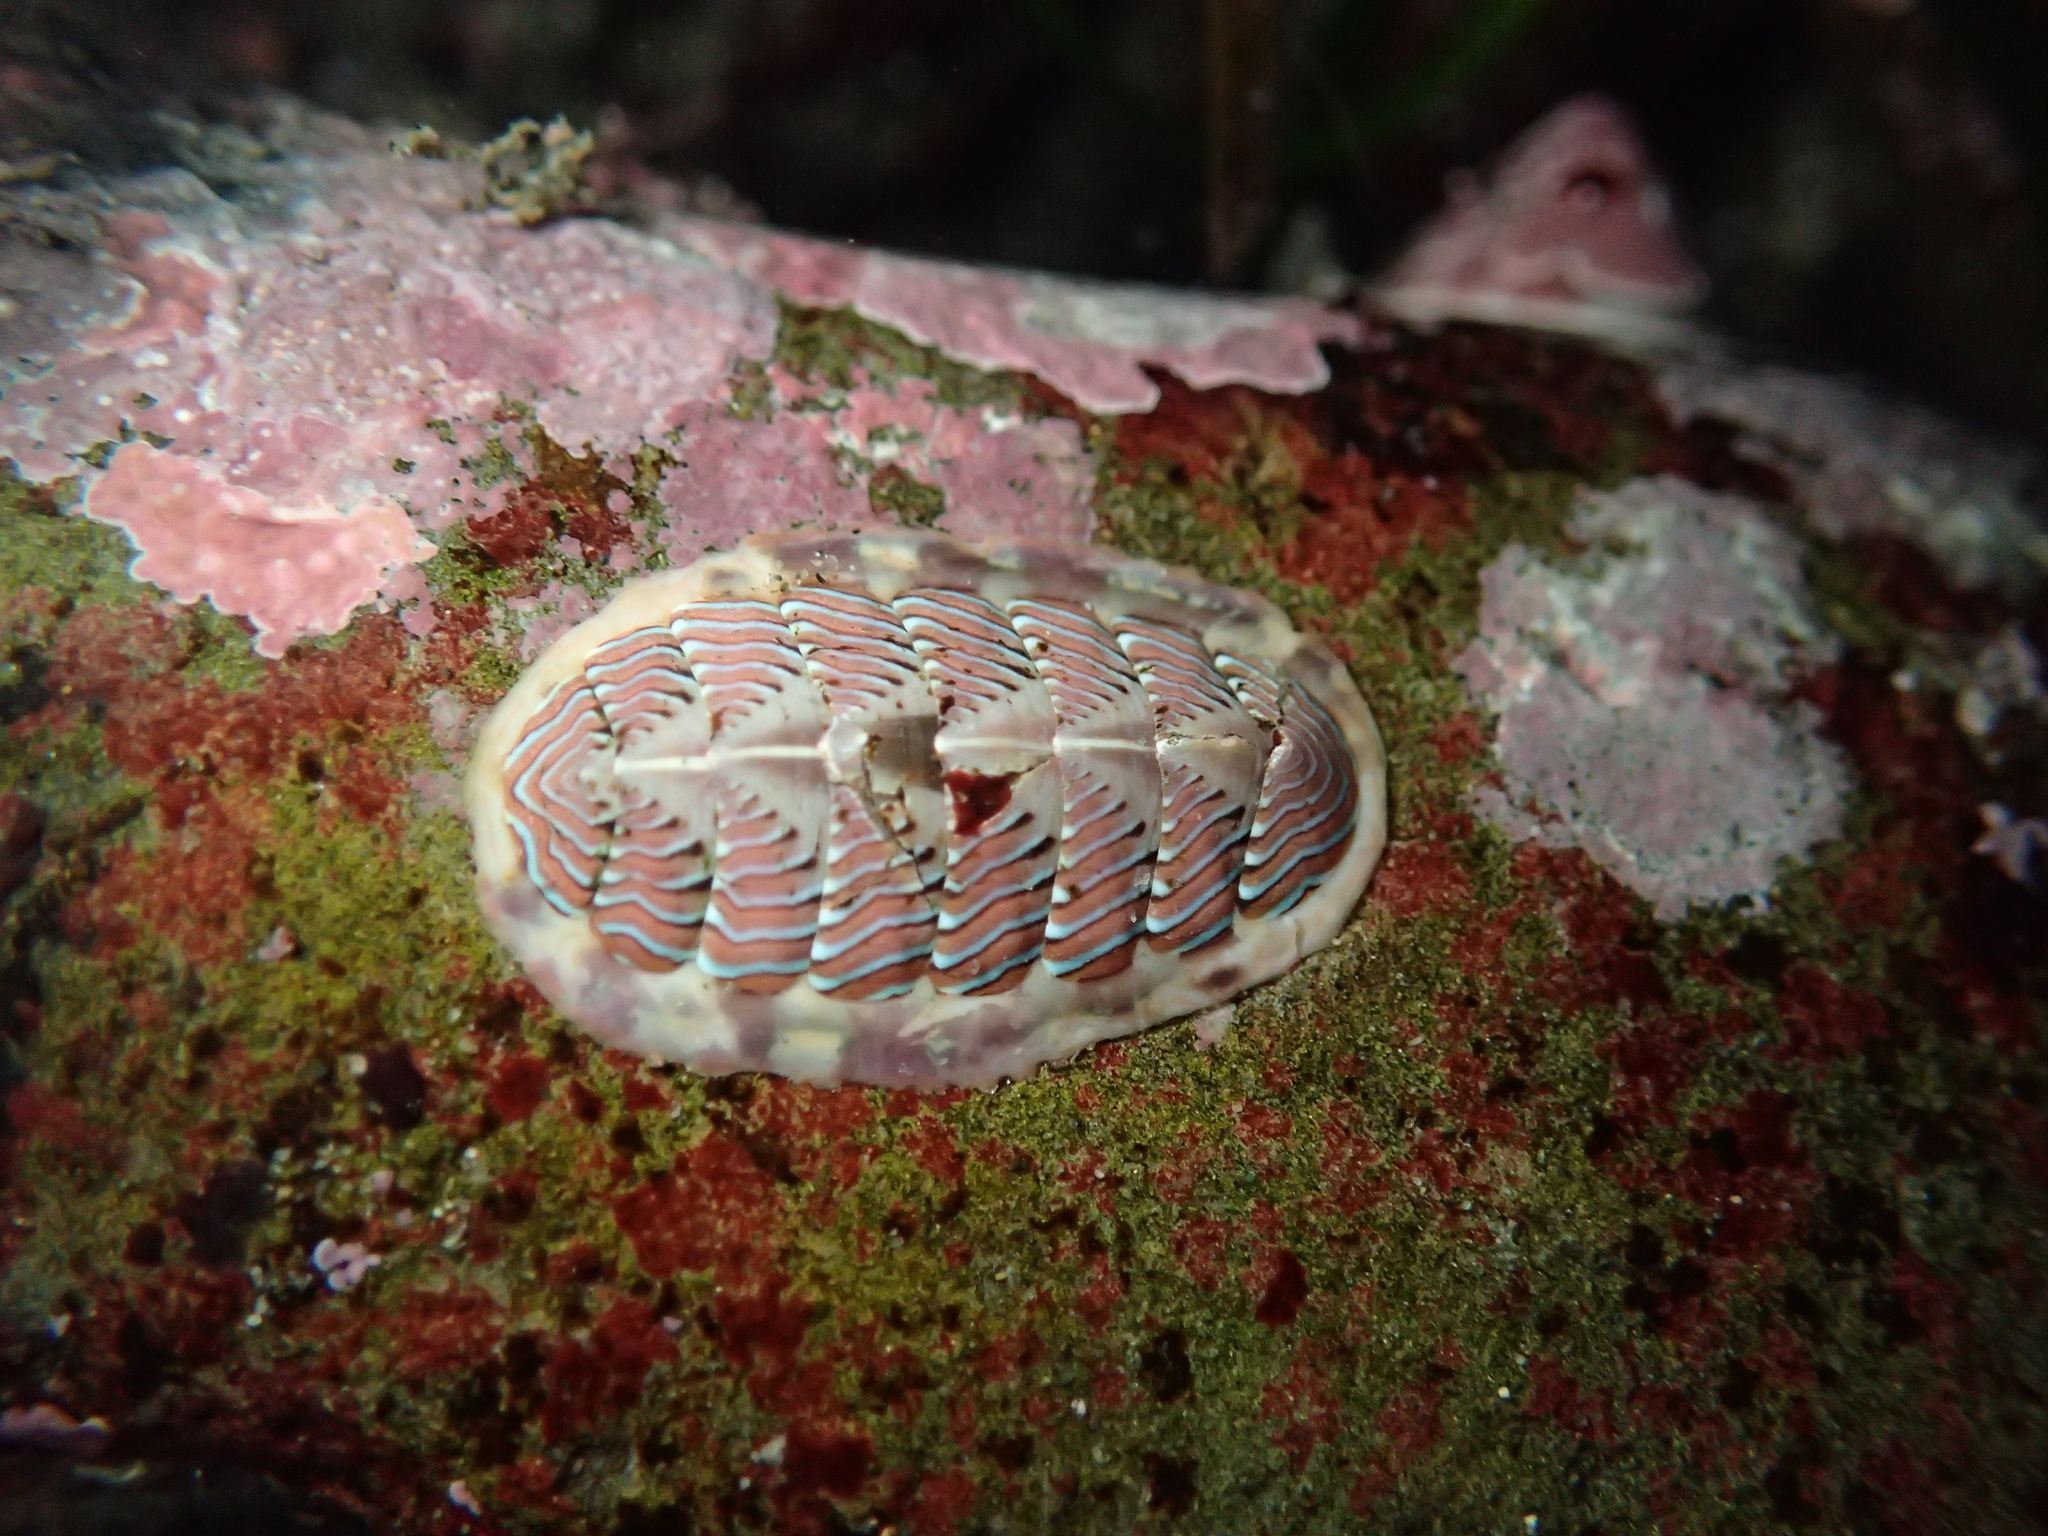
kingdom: Animalia
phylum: Mollusca
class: Polyplacophora
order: Chitonida
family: Tonicellidae
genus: Tonicella
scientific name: Tonicella lineata
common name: Lined chiton
